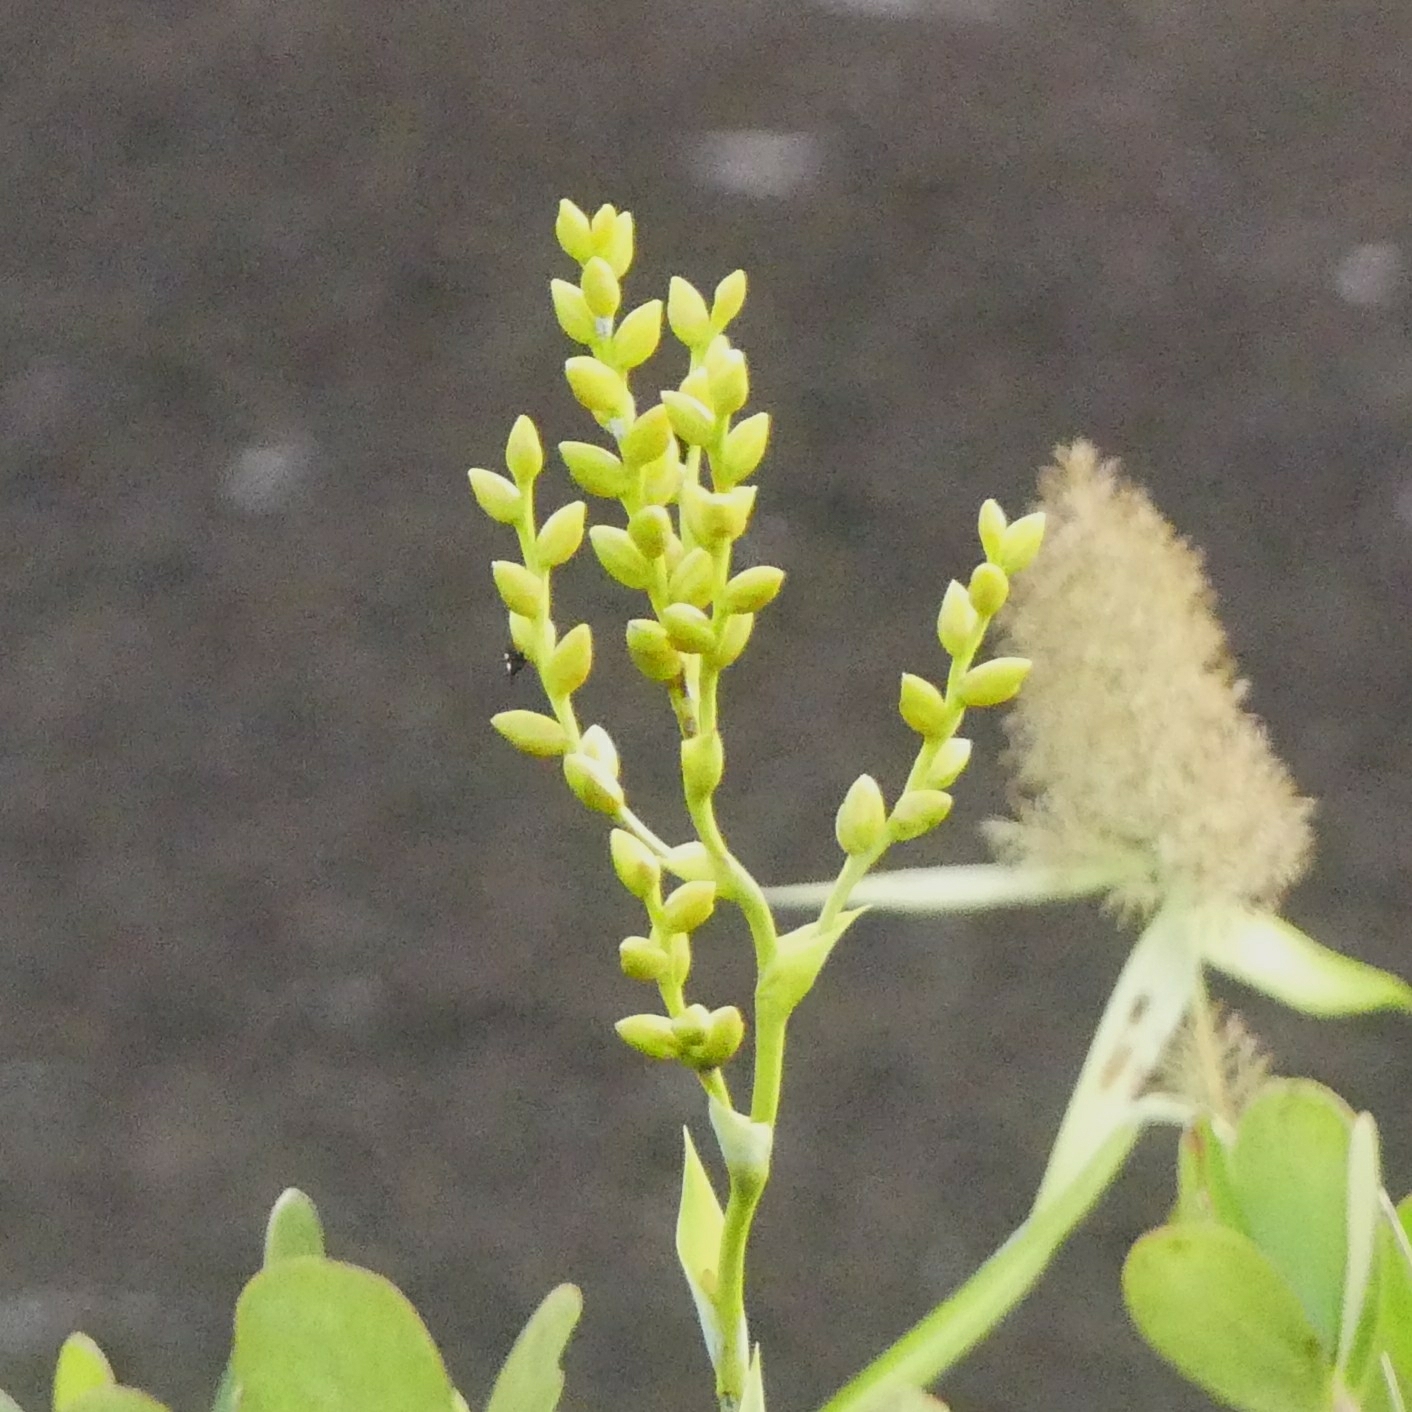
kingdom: Plantae
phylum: Tracheophyta
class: Liliopsida
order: Poales
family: Bromeliaceae
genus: Catopsis
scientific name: Catopsis berteroniana
